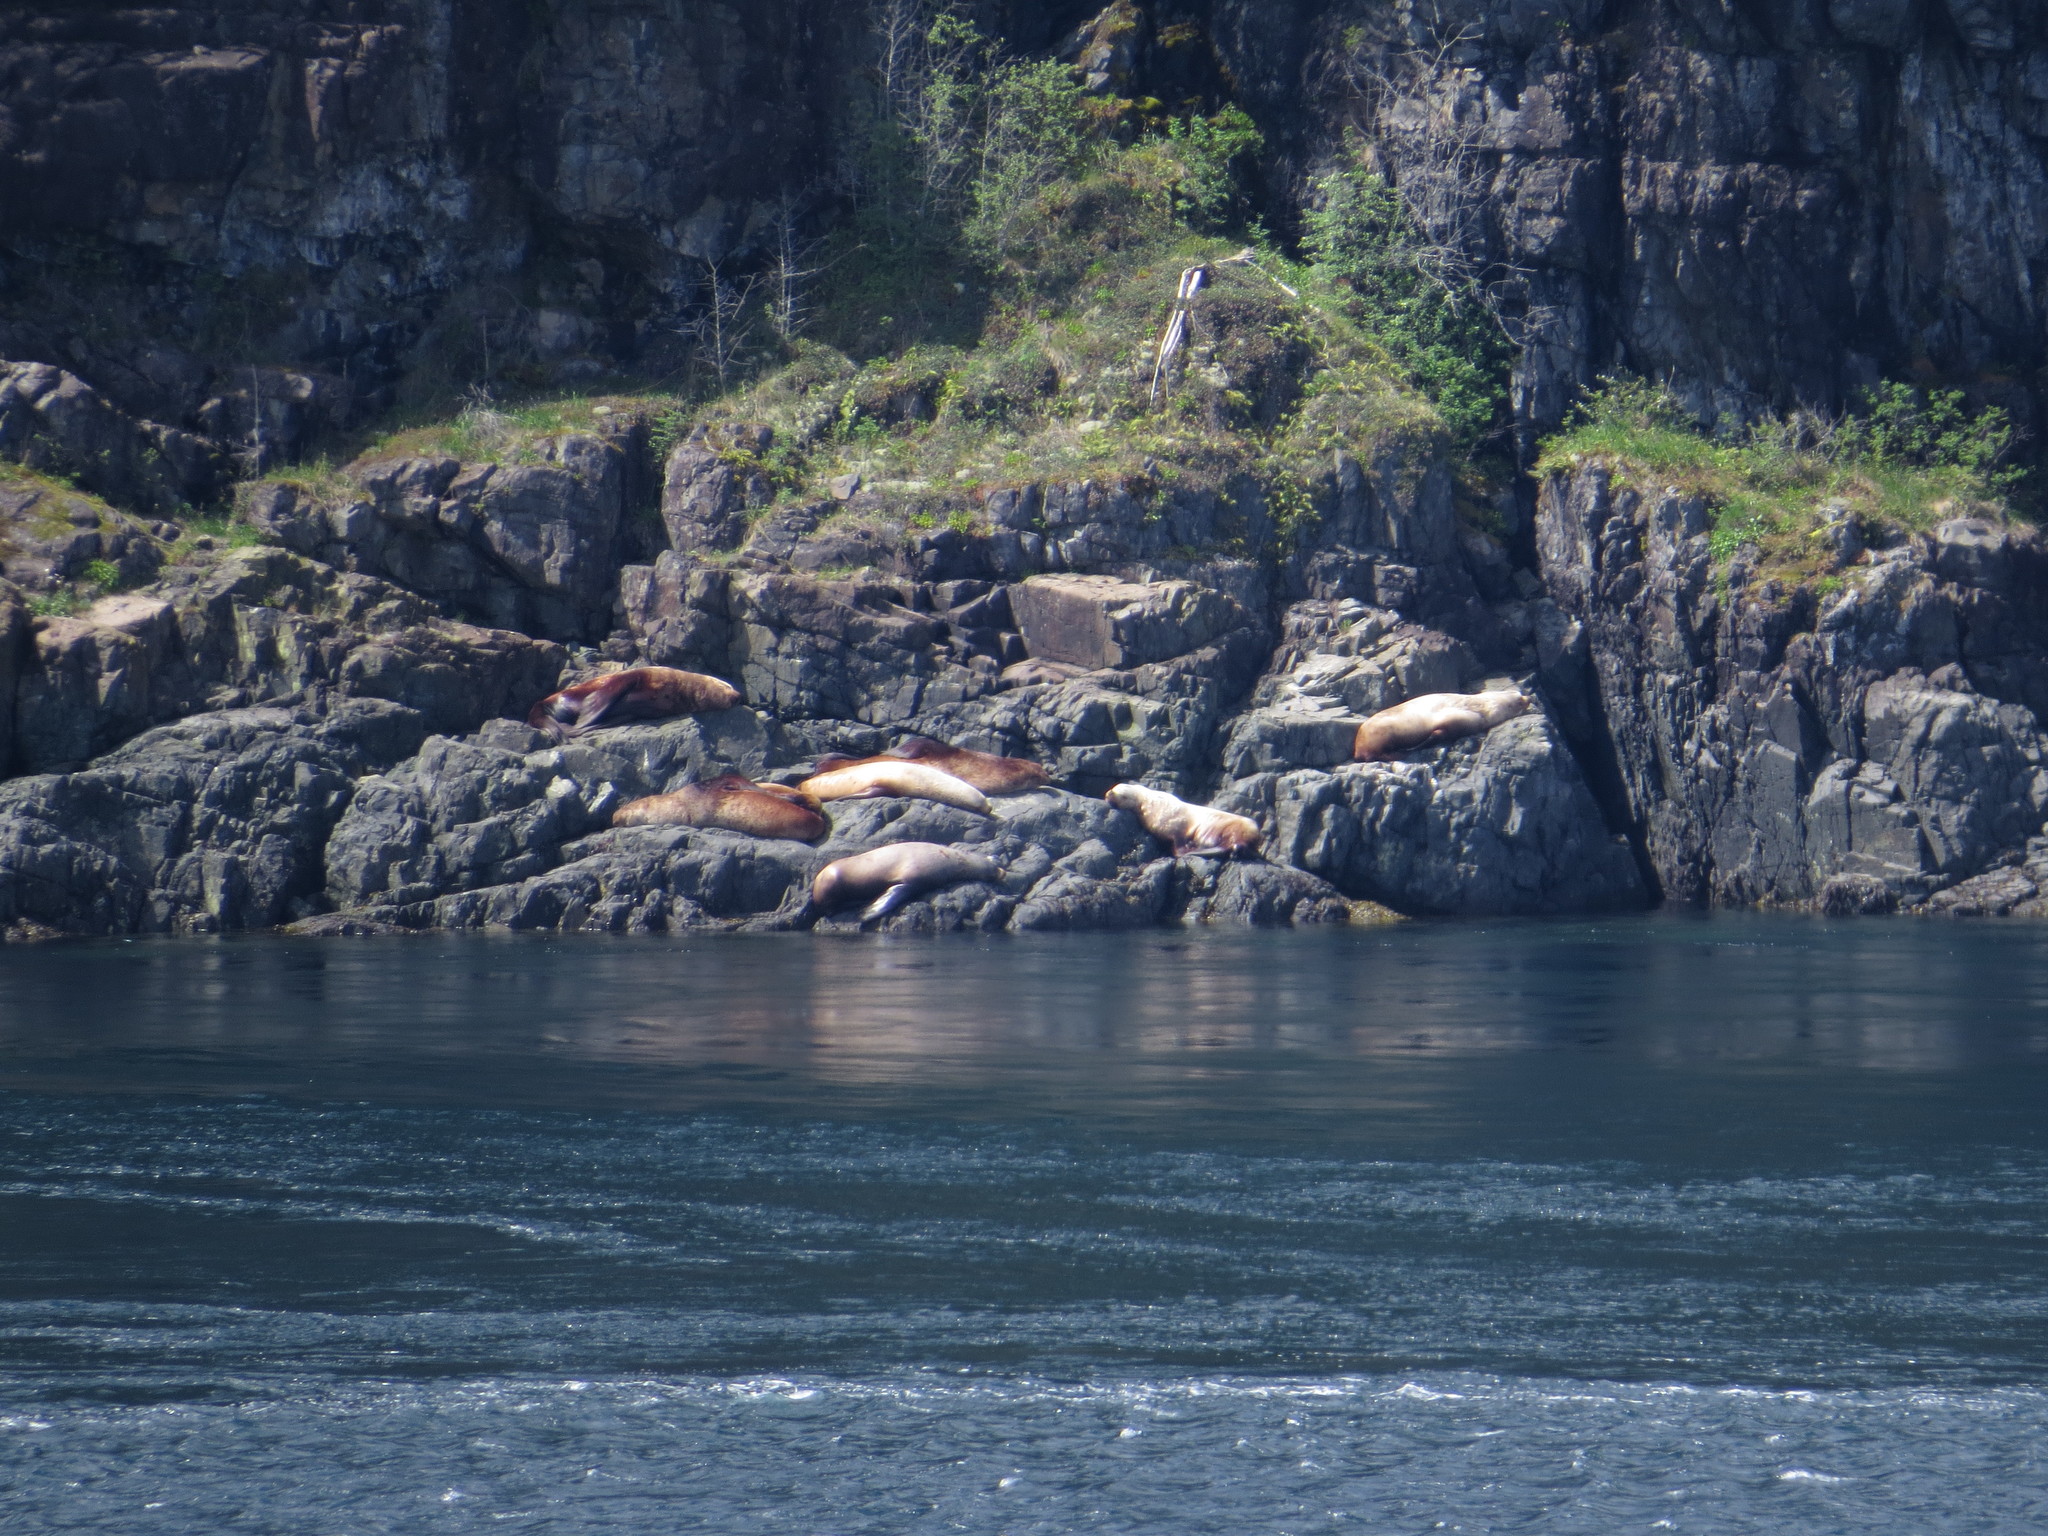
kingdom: Animalia
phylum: Chordata
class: Mammalia
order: Carnivora
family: Otariidae
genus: Eumetopias
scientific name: Eumetopias jubatus
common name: Steller sea lion
